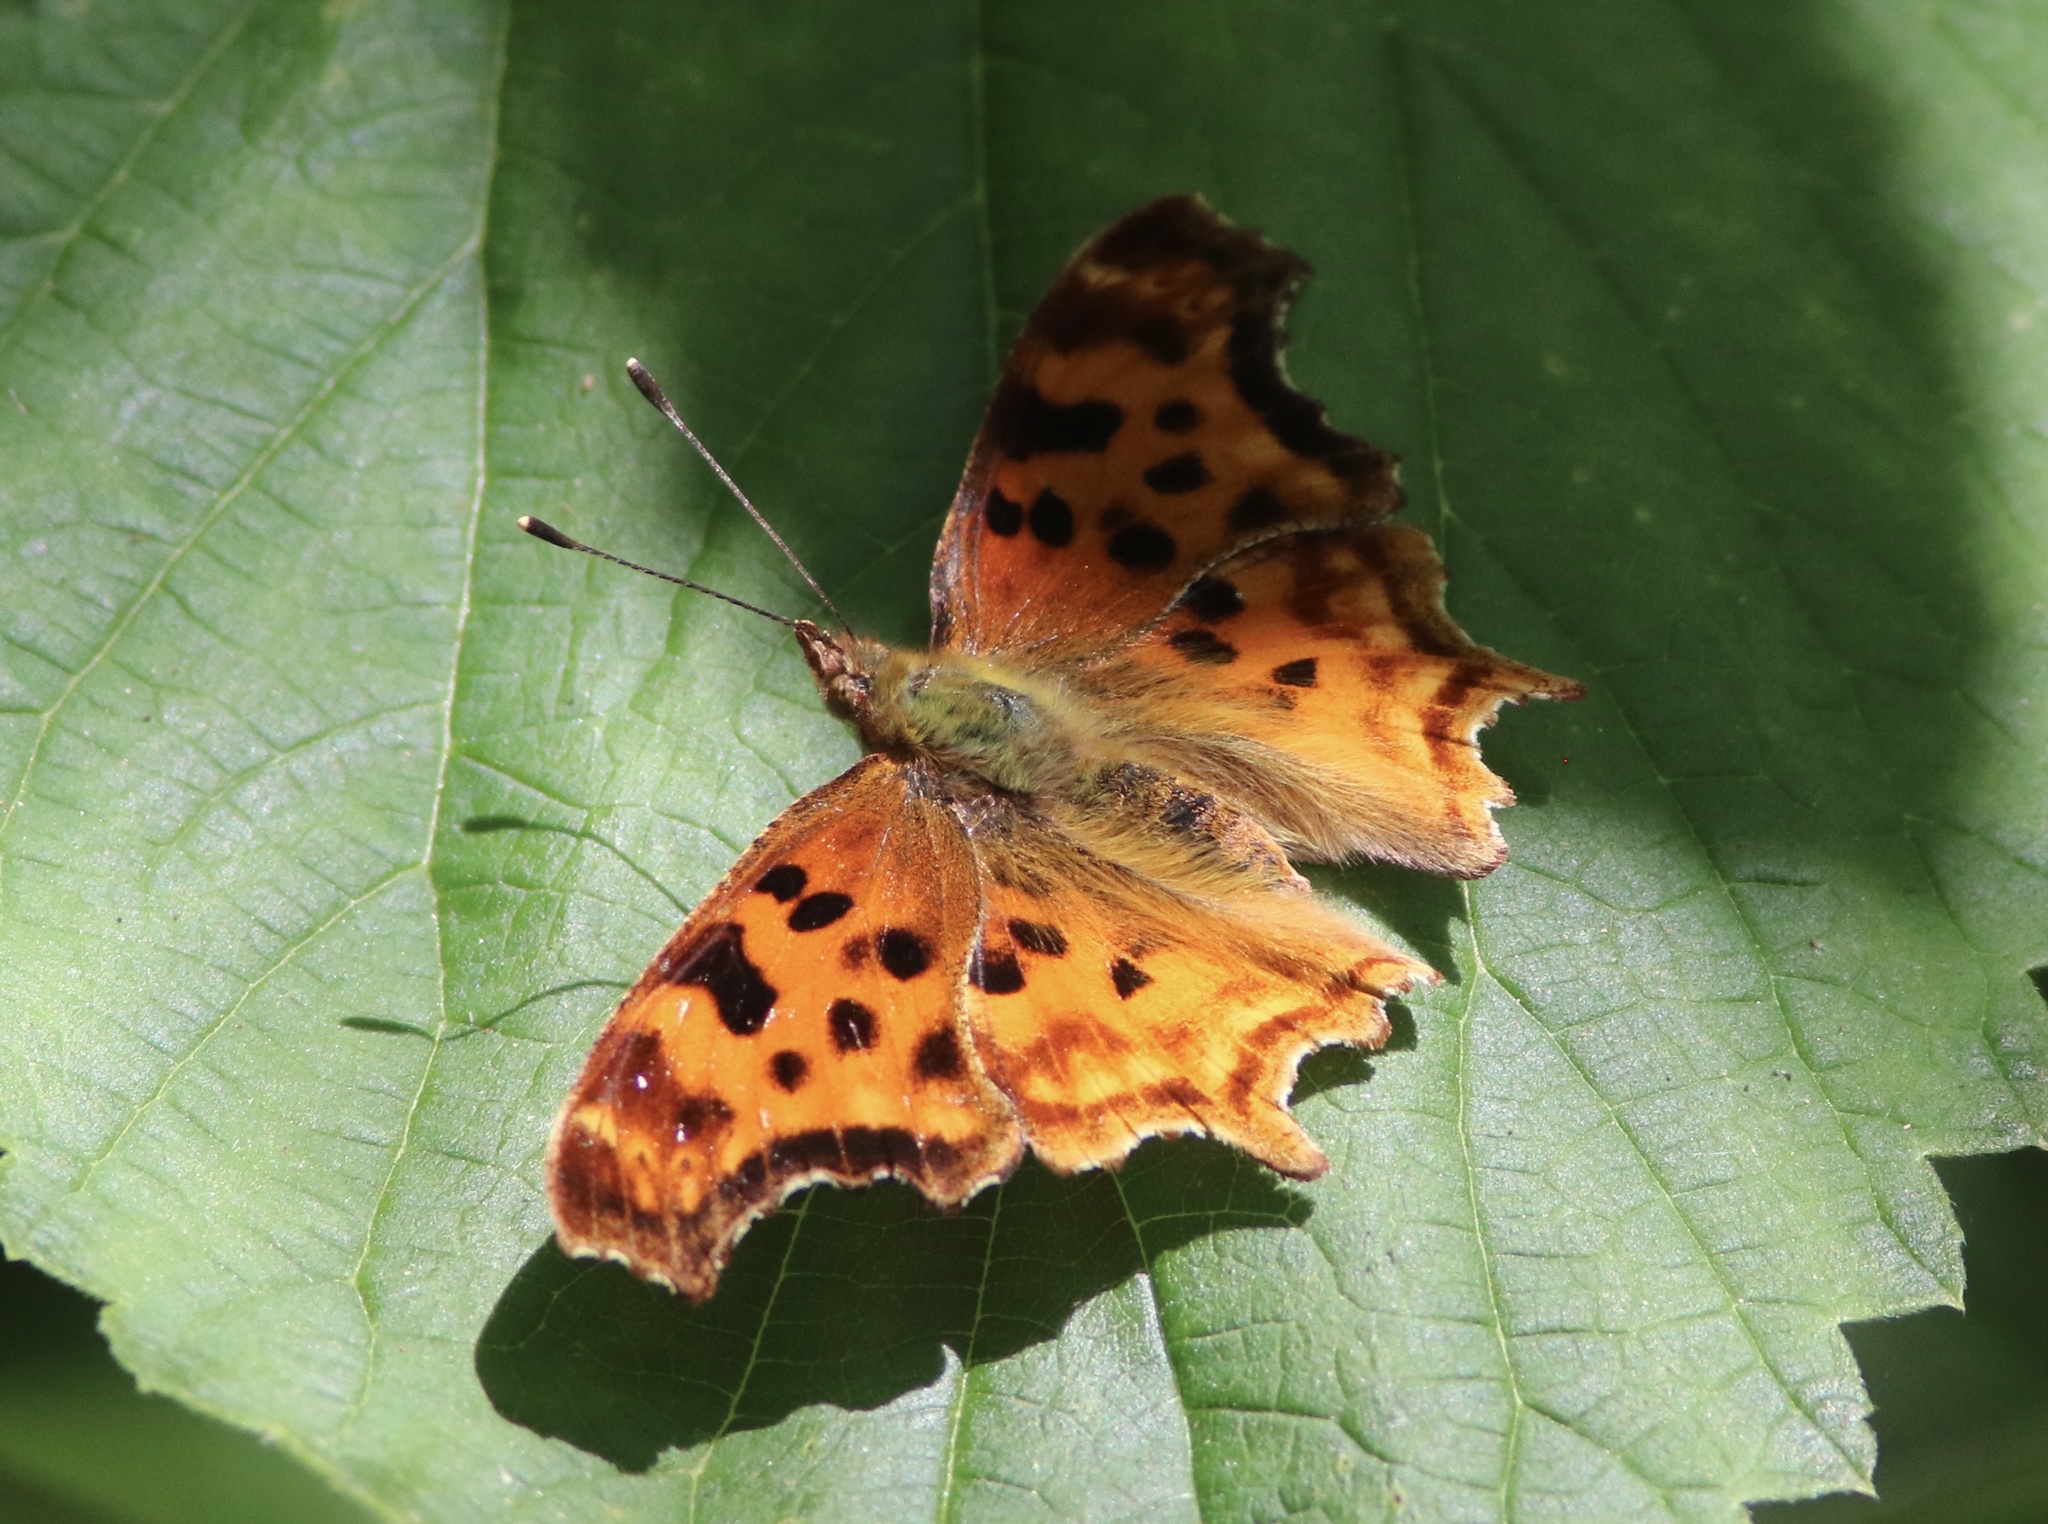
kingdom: Animalia
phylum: Arthropoda
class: Insecta
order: Lepidoptera
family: Nymphalidae
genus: Polygonia
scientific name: Polygonia satyrus
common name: Satyr angle wing
